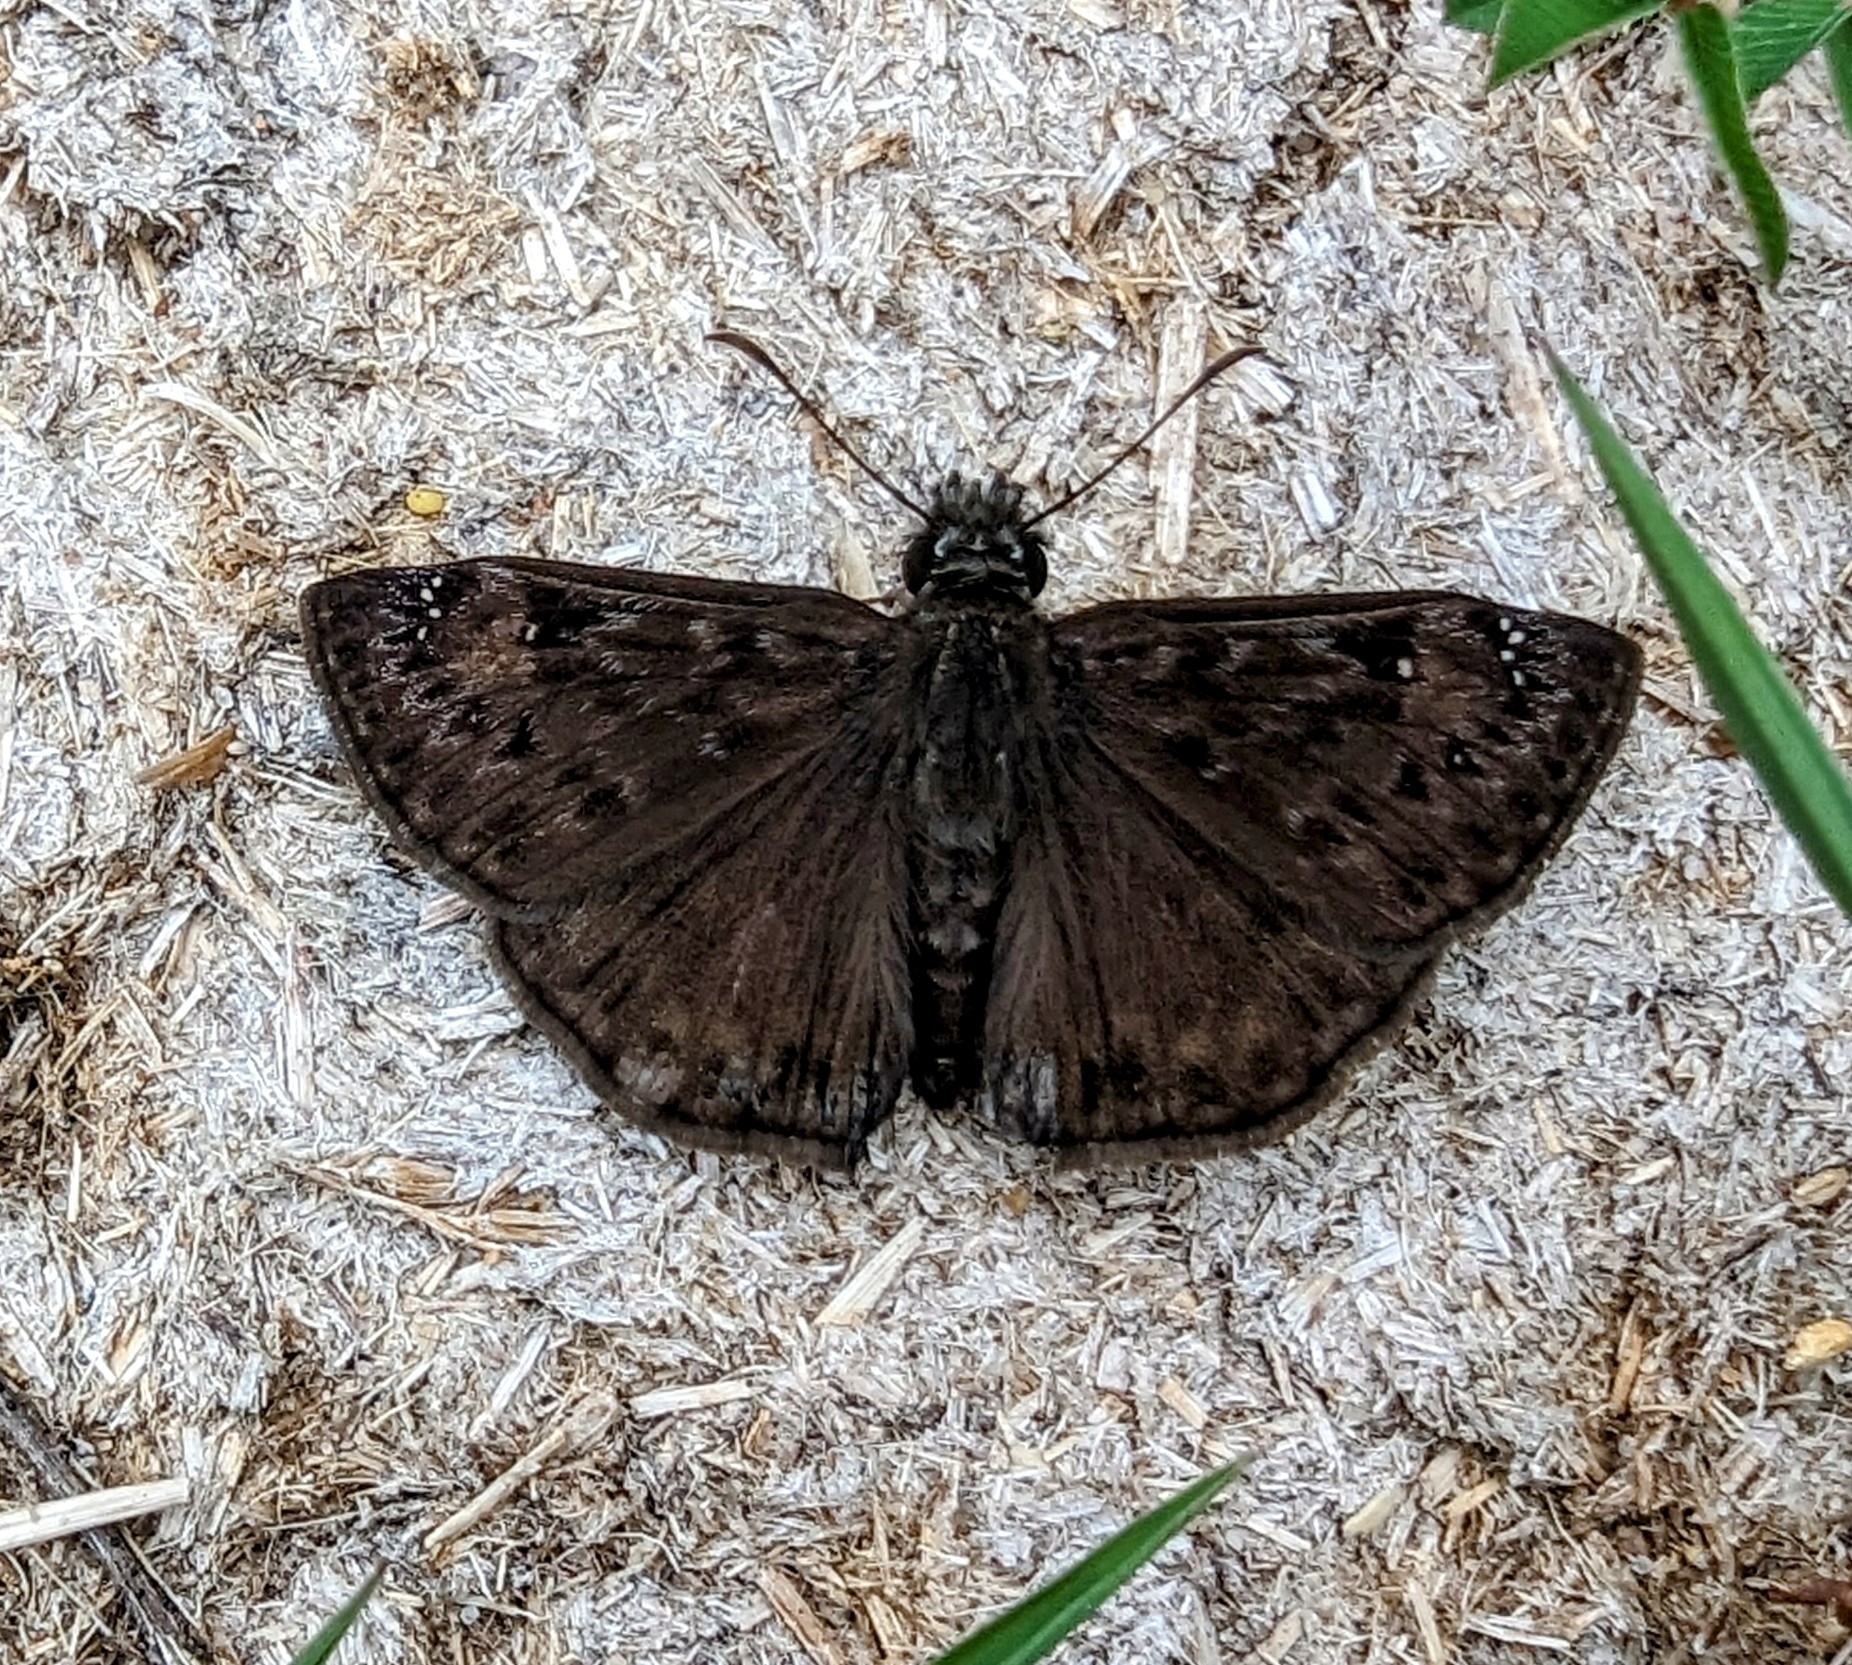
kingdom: Animalia
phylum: Arthropoda
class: Insecta
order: Lepidoptera
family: Hesperiidae
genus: Erynnis
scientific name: Erynnis horatius
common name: Horace's duskywing
